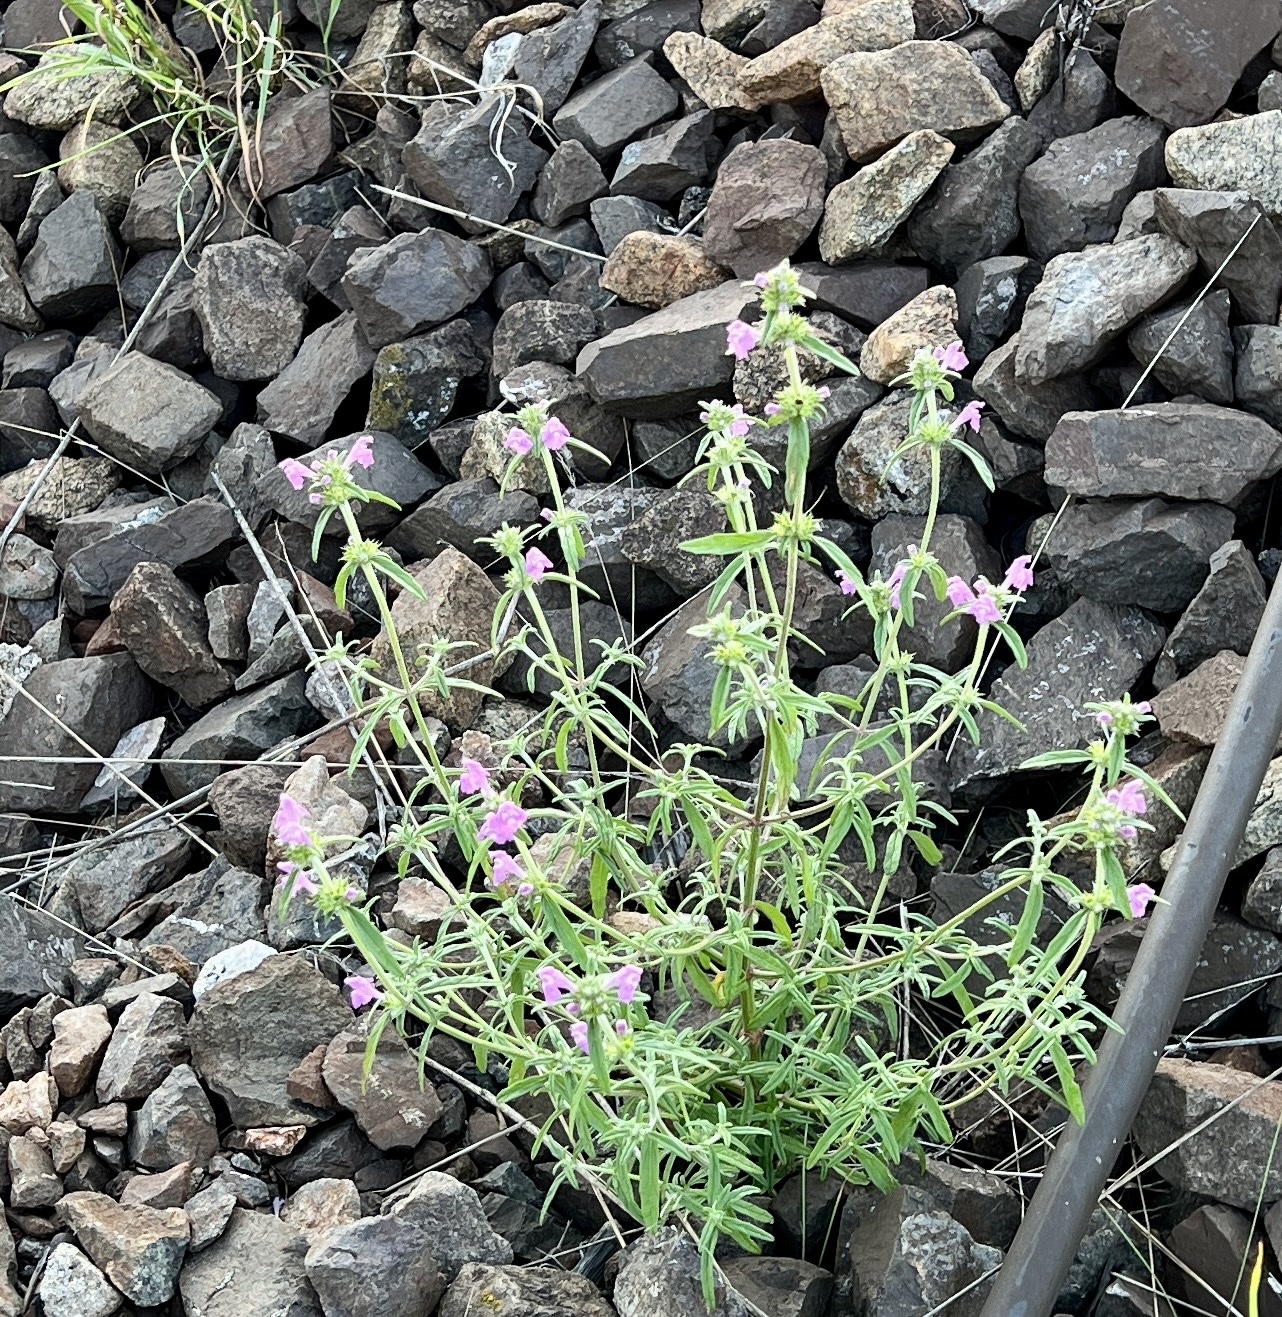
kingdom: Plantae
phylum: Tracheophyta
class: Magnoliopsida
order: Lamiales
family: Lamiaceae
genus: Galeopsis
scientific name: Galeopsis angustifolia
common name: Red hemp-nettle
